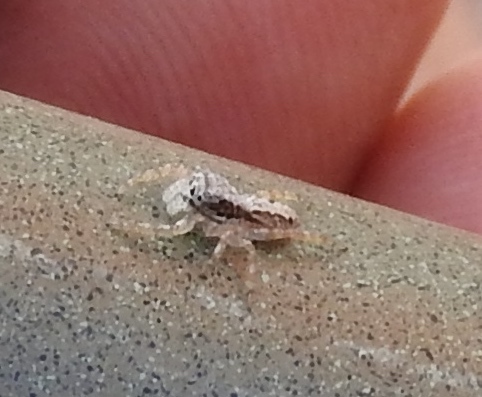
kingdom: Animalia
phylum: Arthropoda
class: Arachnida
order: Araneae
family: Salticidae
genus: Balmaceda
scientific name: Balmaceda
